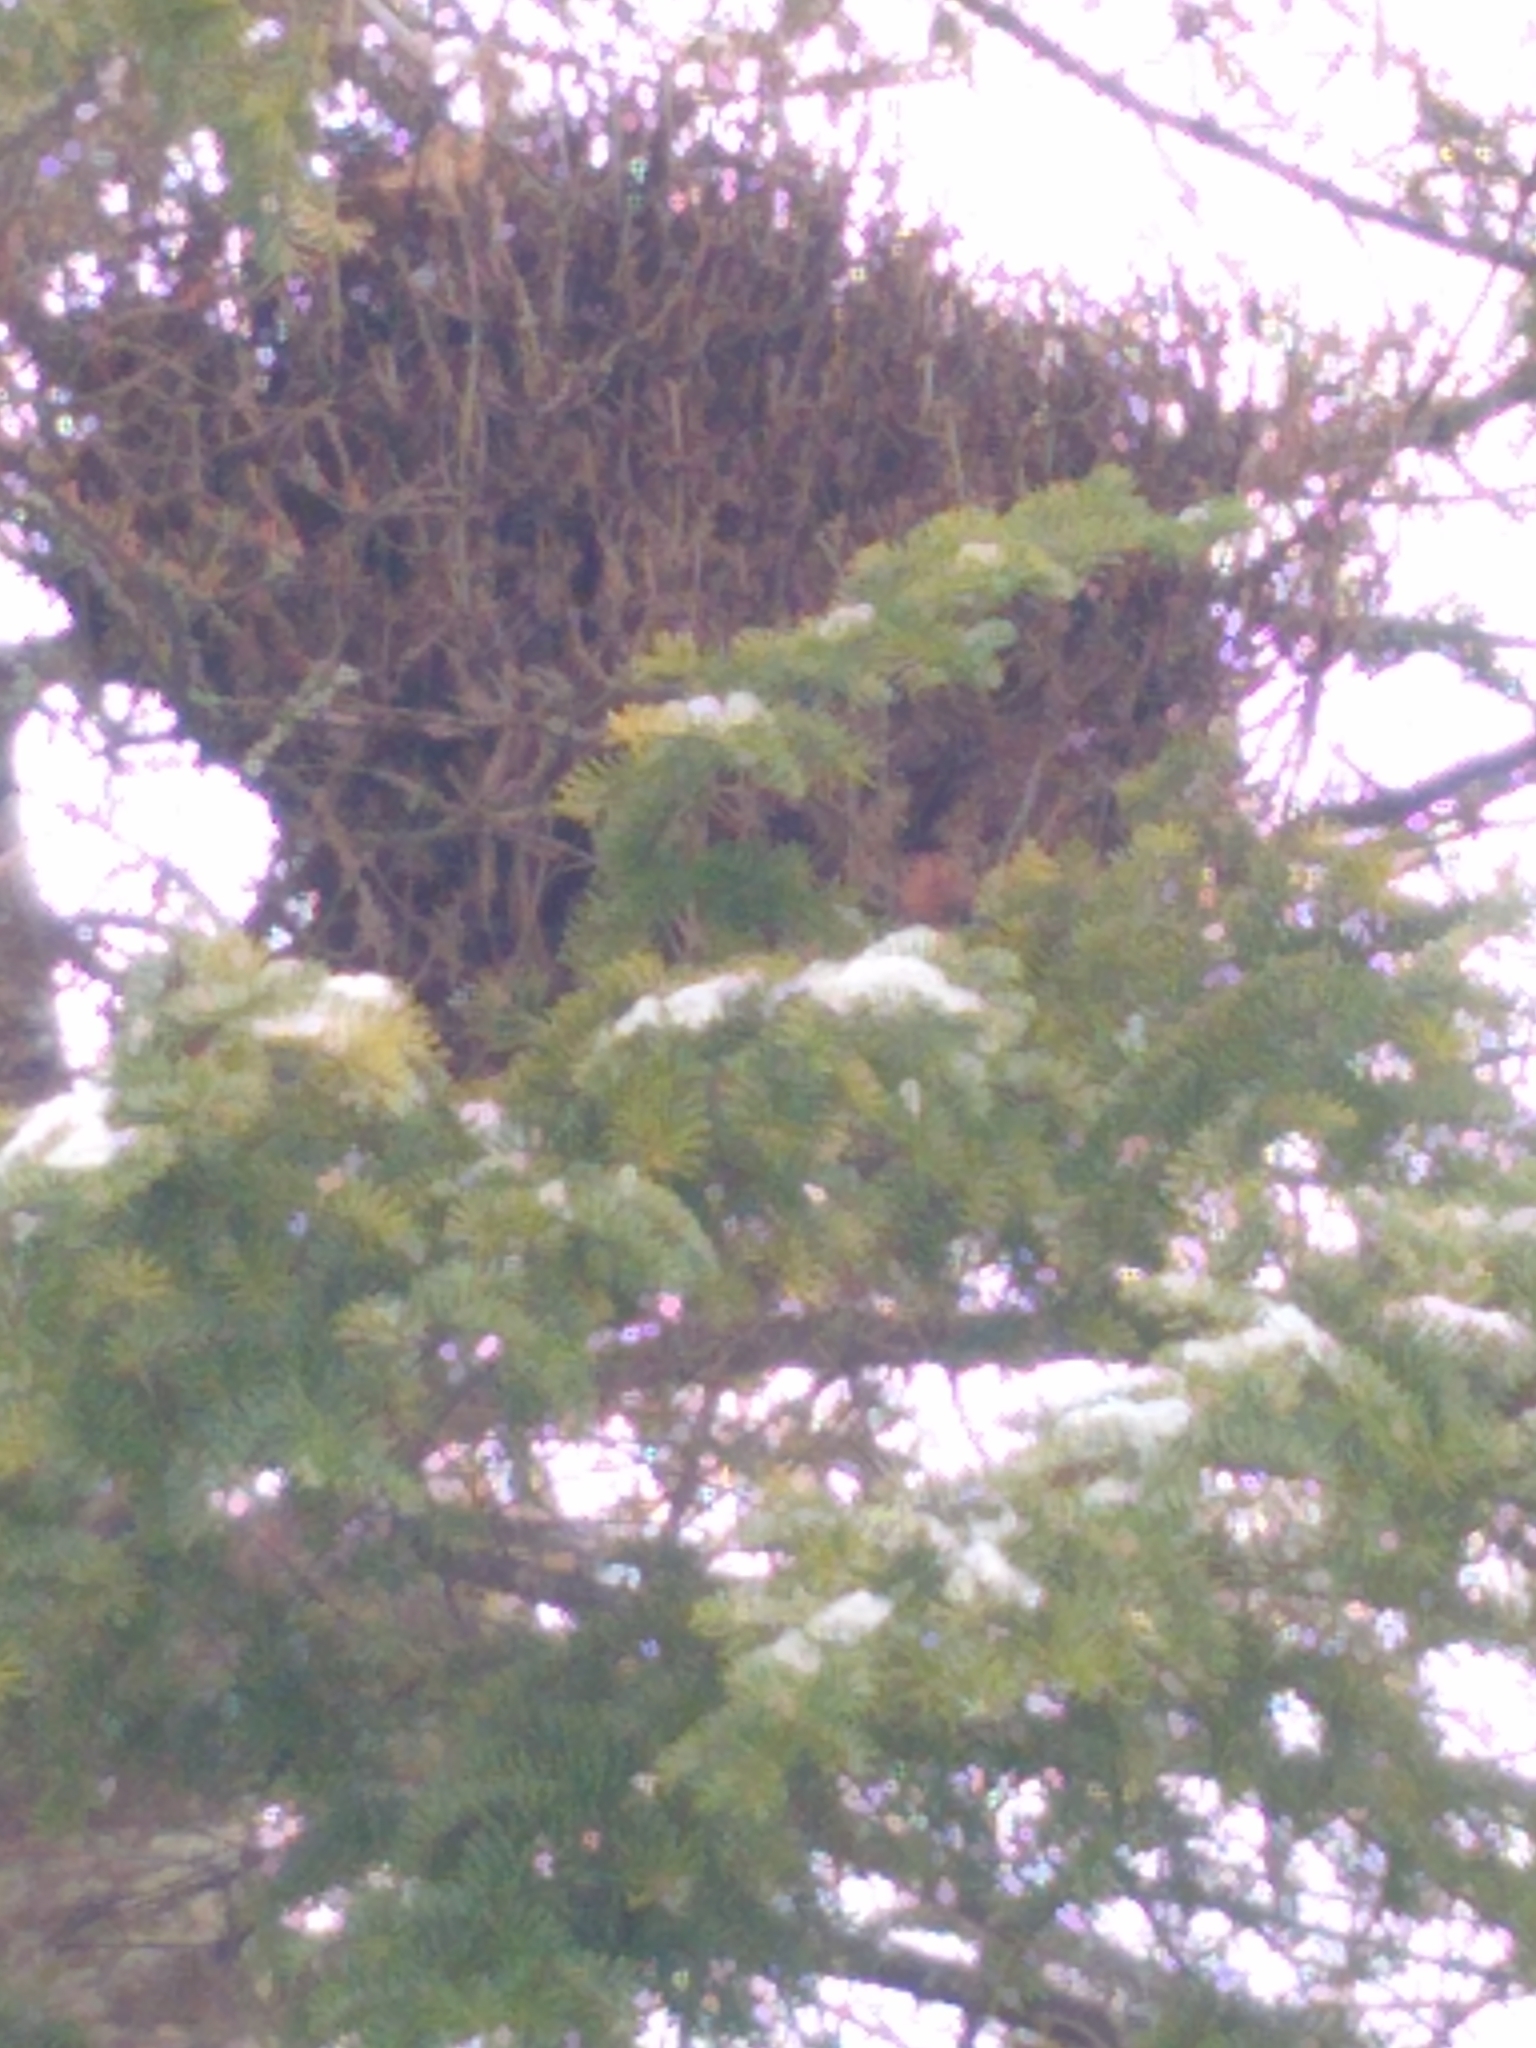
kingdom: Fungi
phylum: Basidiomycota
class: Pucciniomycetes
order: Pucciniales
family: Coleosporiaceae
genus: Chrysomyxa
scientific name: Chrysomyxa arctostaphyli
